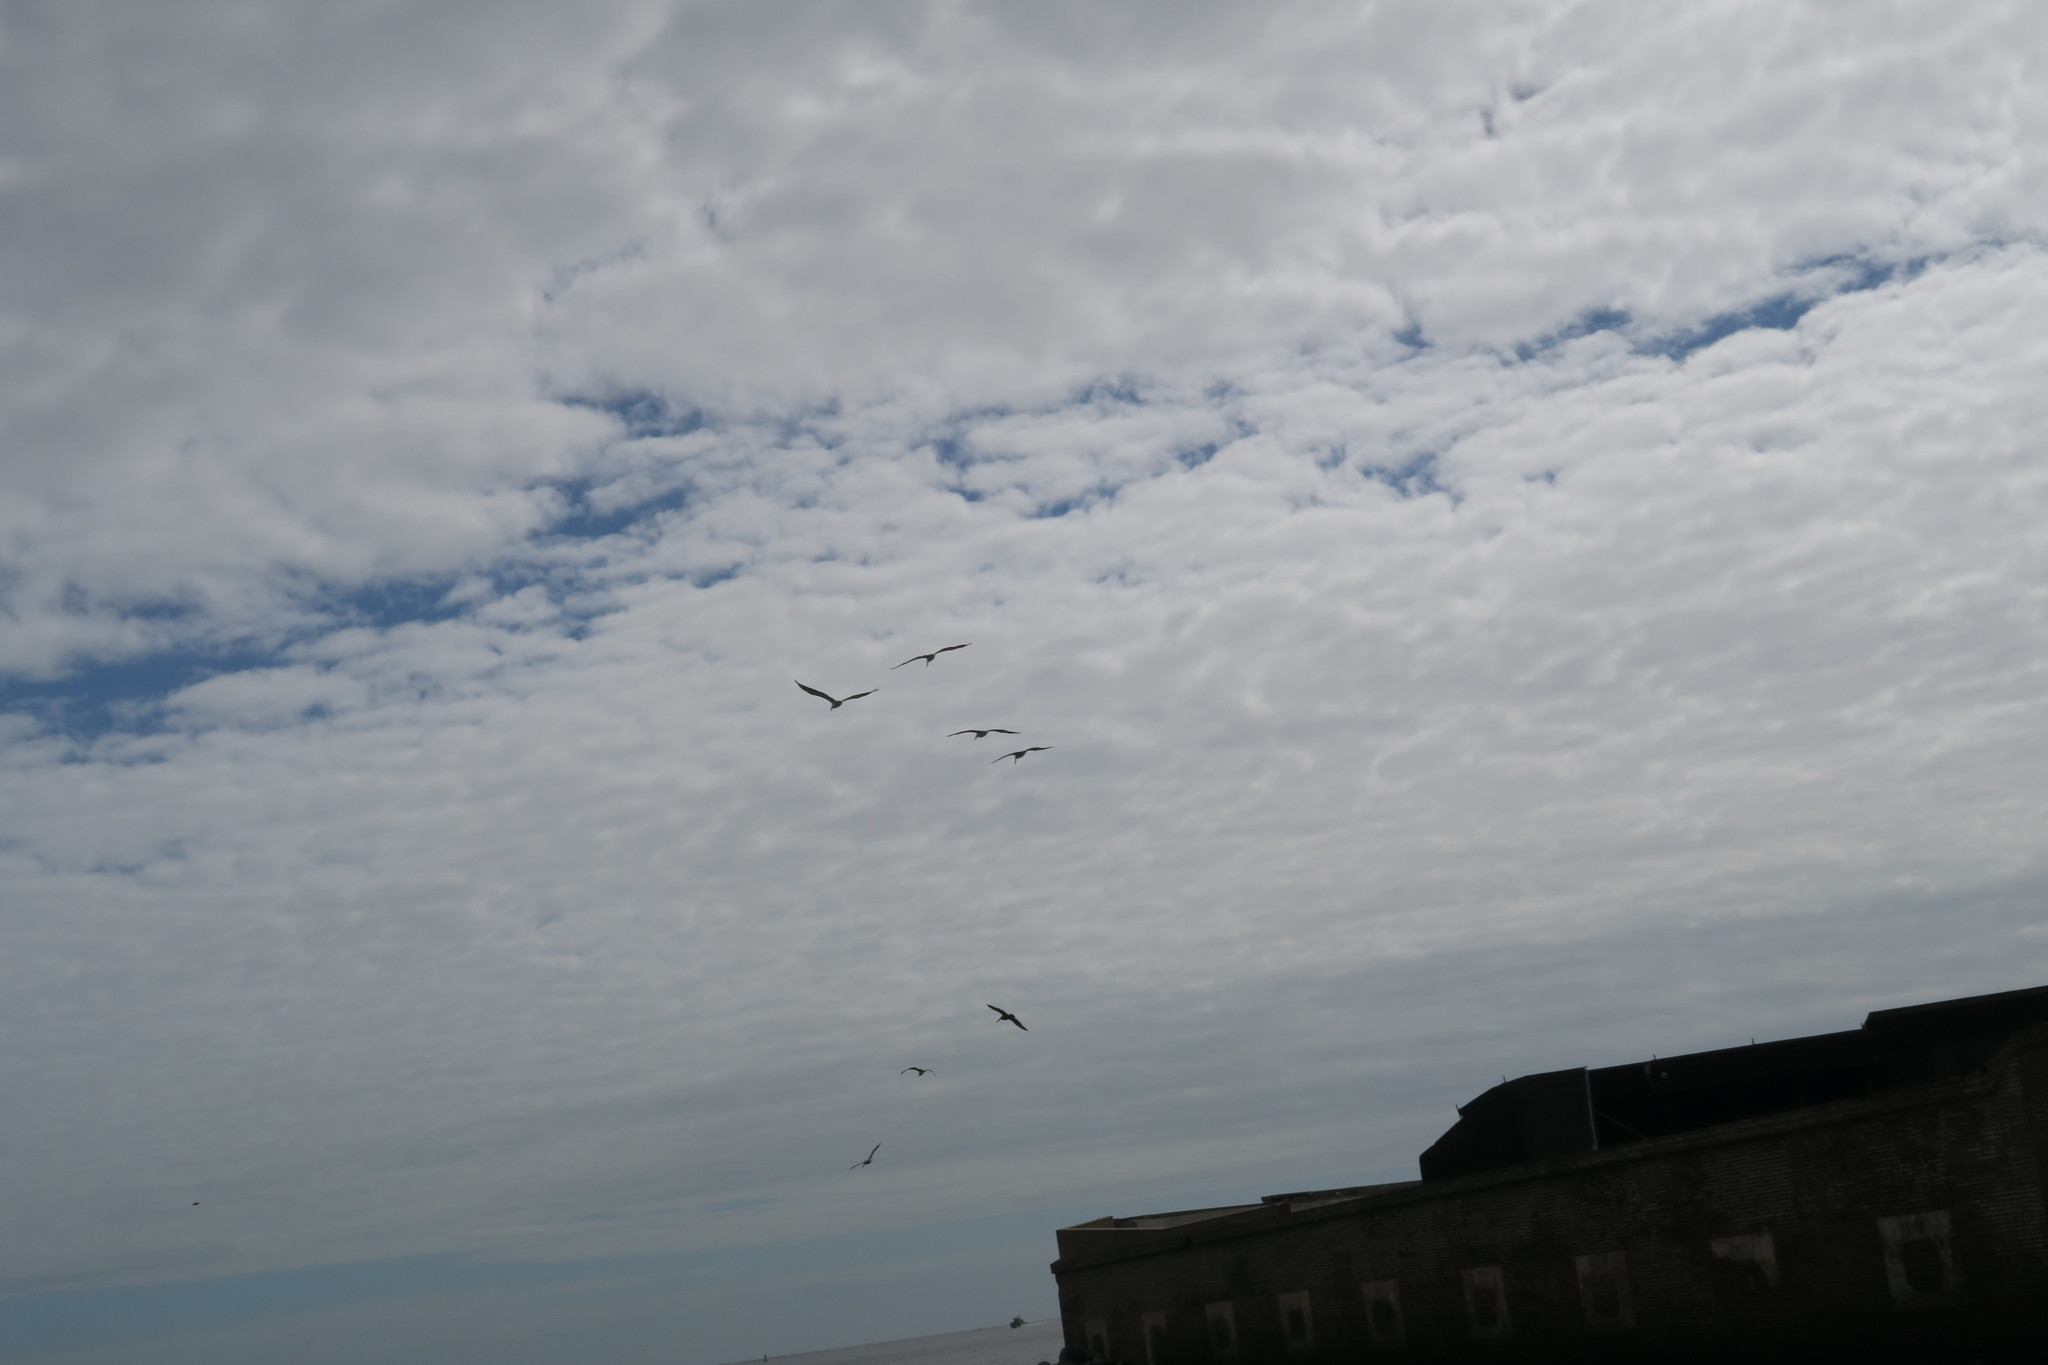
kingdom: Animalia
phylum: Chordata
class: Aves
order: Pelecaniformes
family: Pelecanidae
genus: Pelecanus
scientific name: Pelecanus occidentalis
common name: Brown pelican
